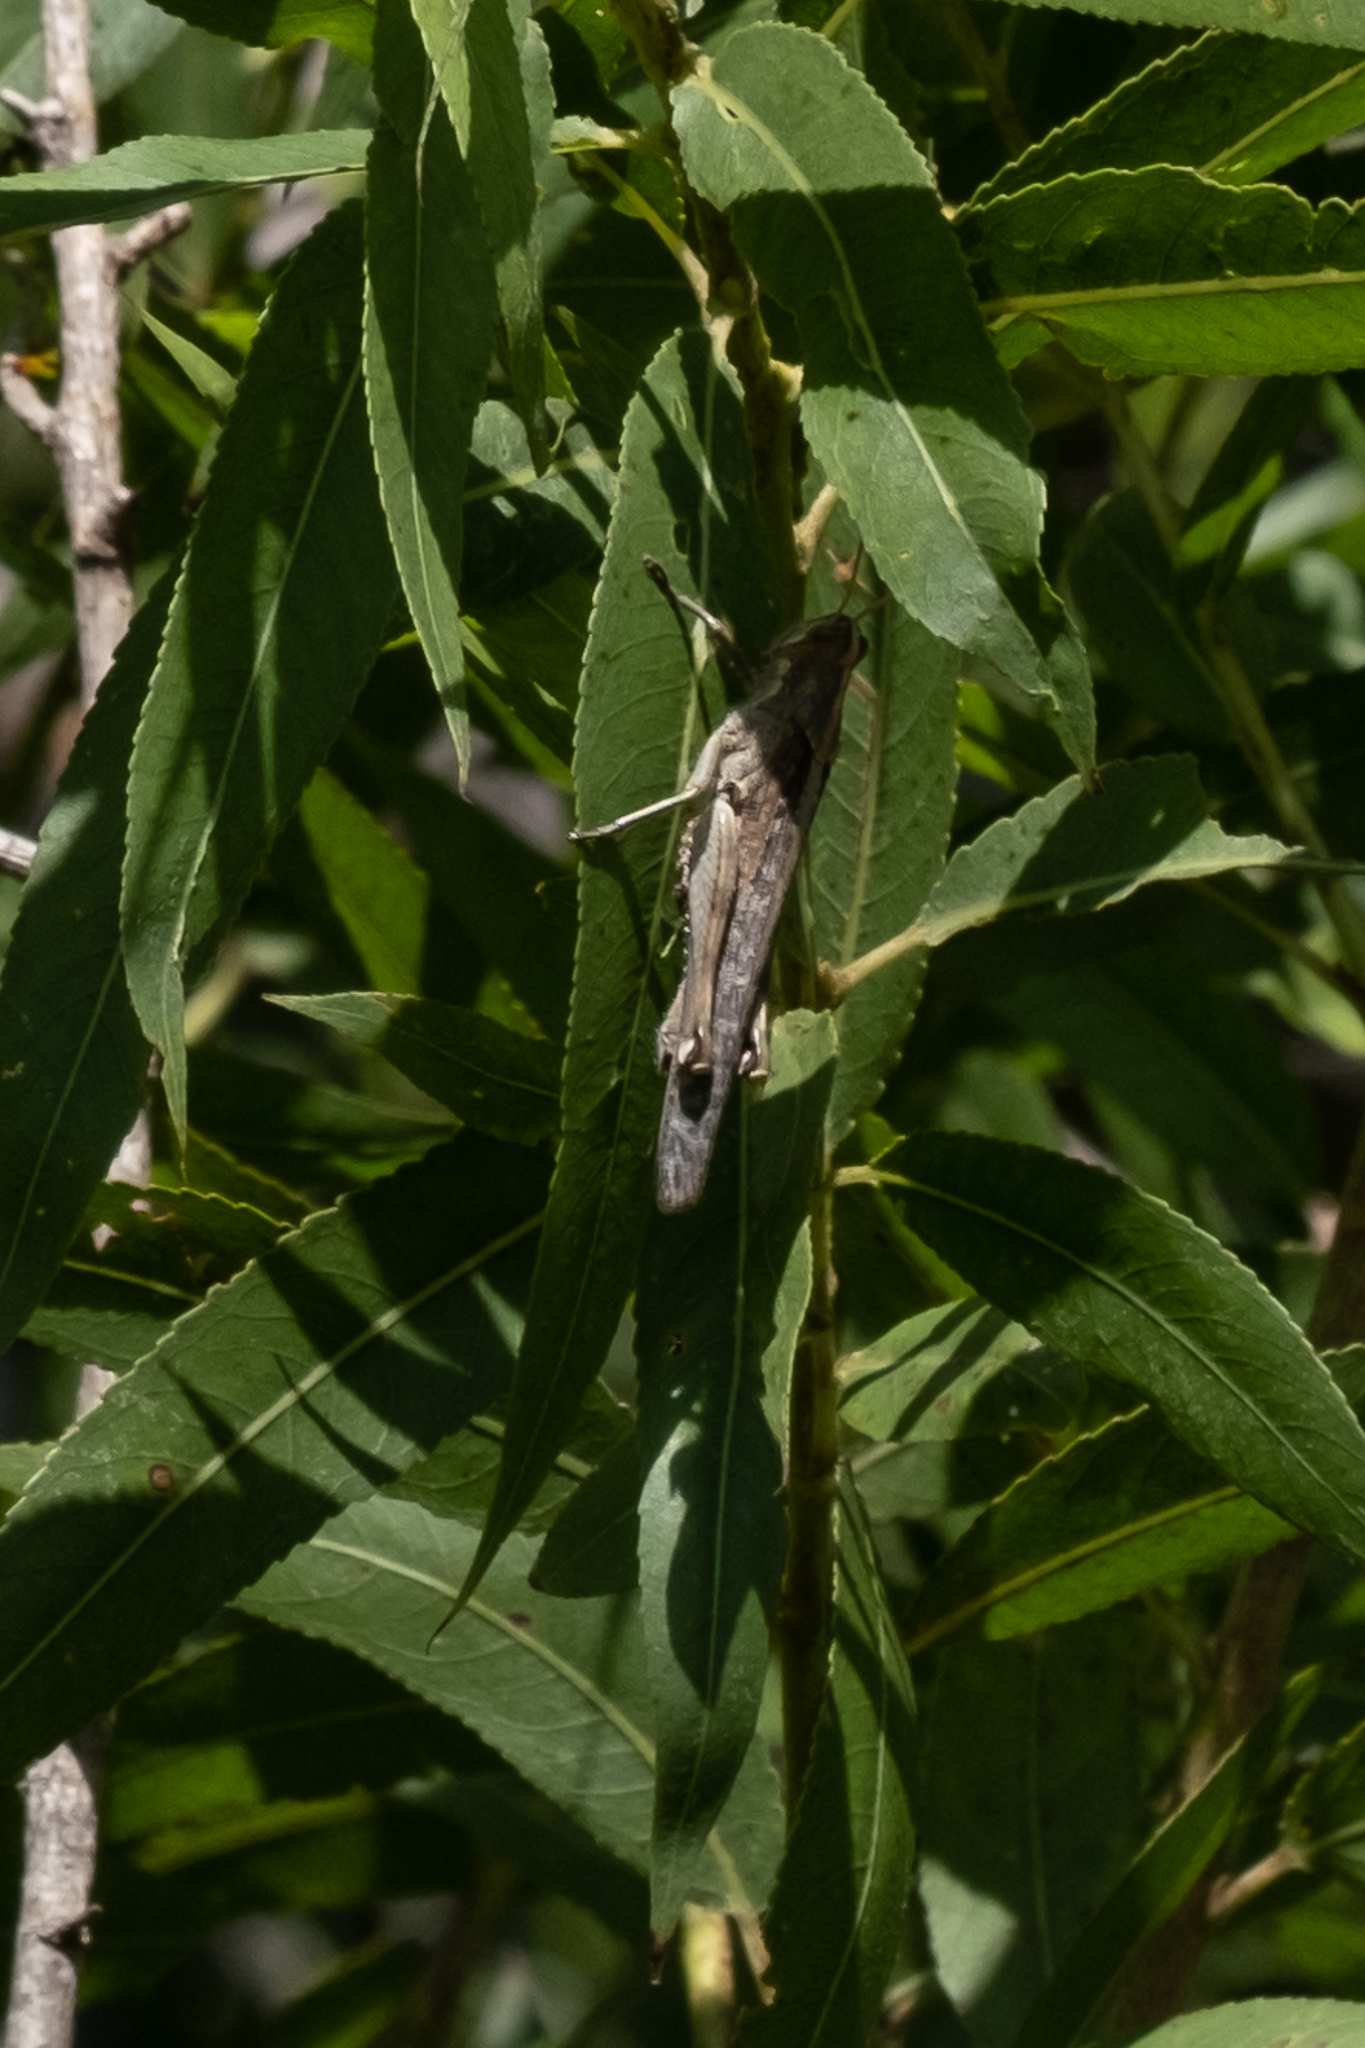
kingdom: Animalia
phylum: Arthropoda
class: Insecta
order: Orthoptera
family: Acrididae
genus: Schistocerca
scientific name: Schistocerca nitens
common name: Vagrant grasshopper
